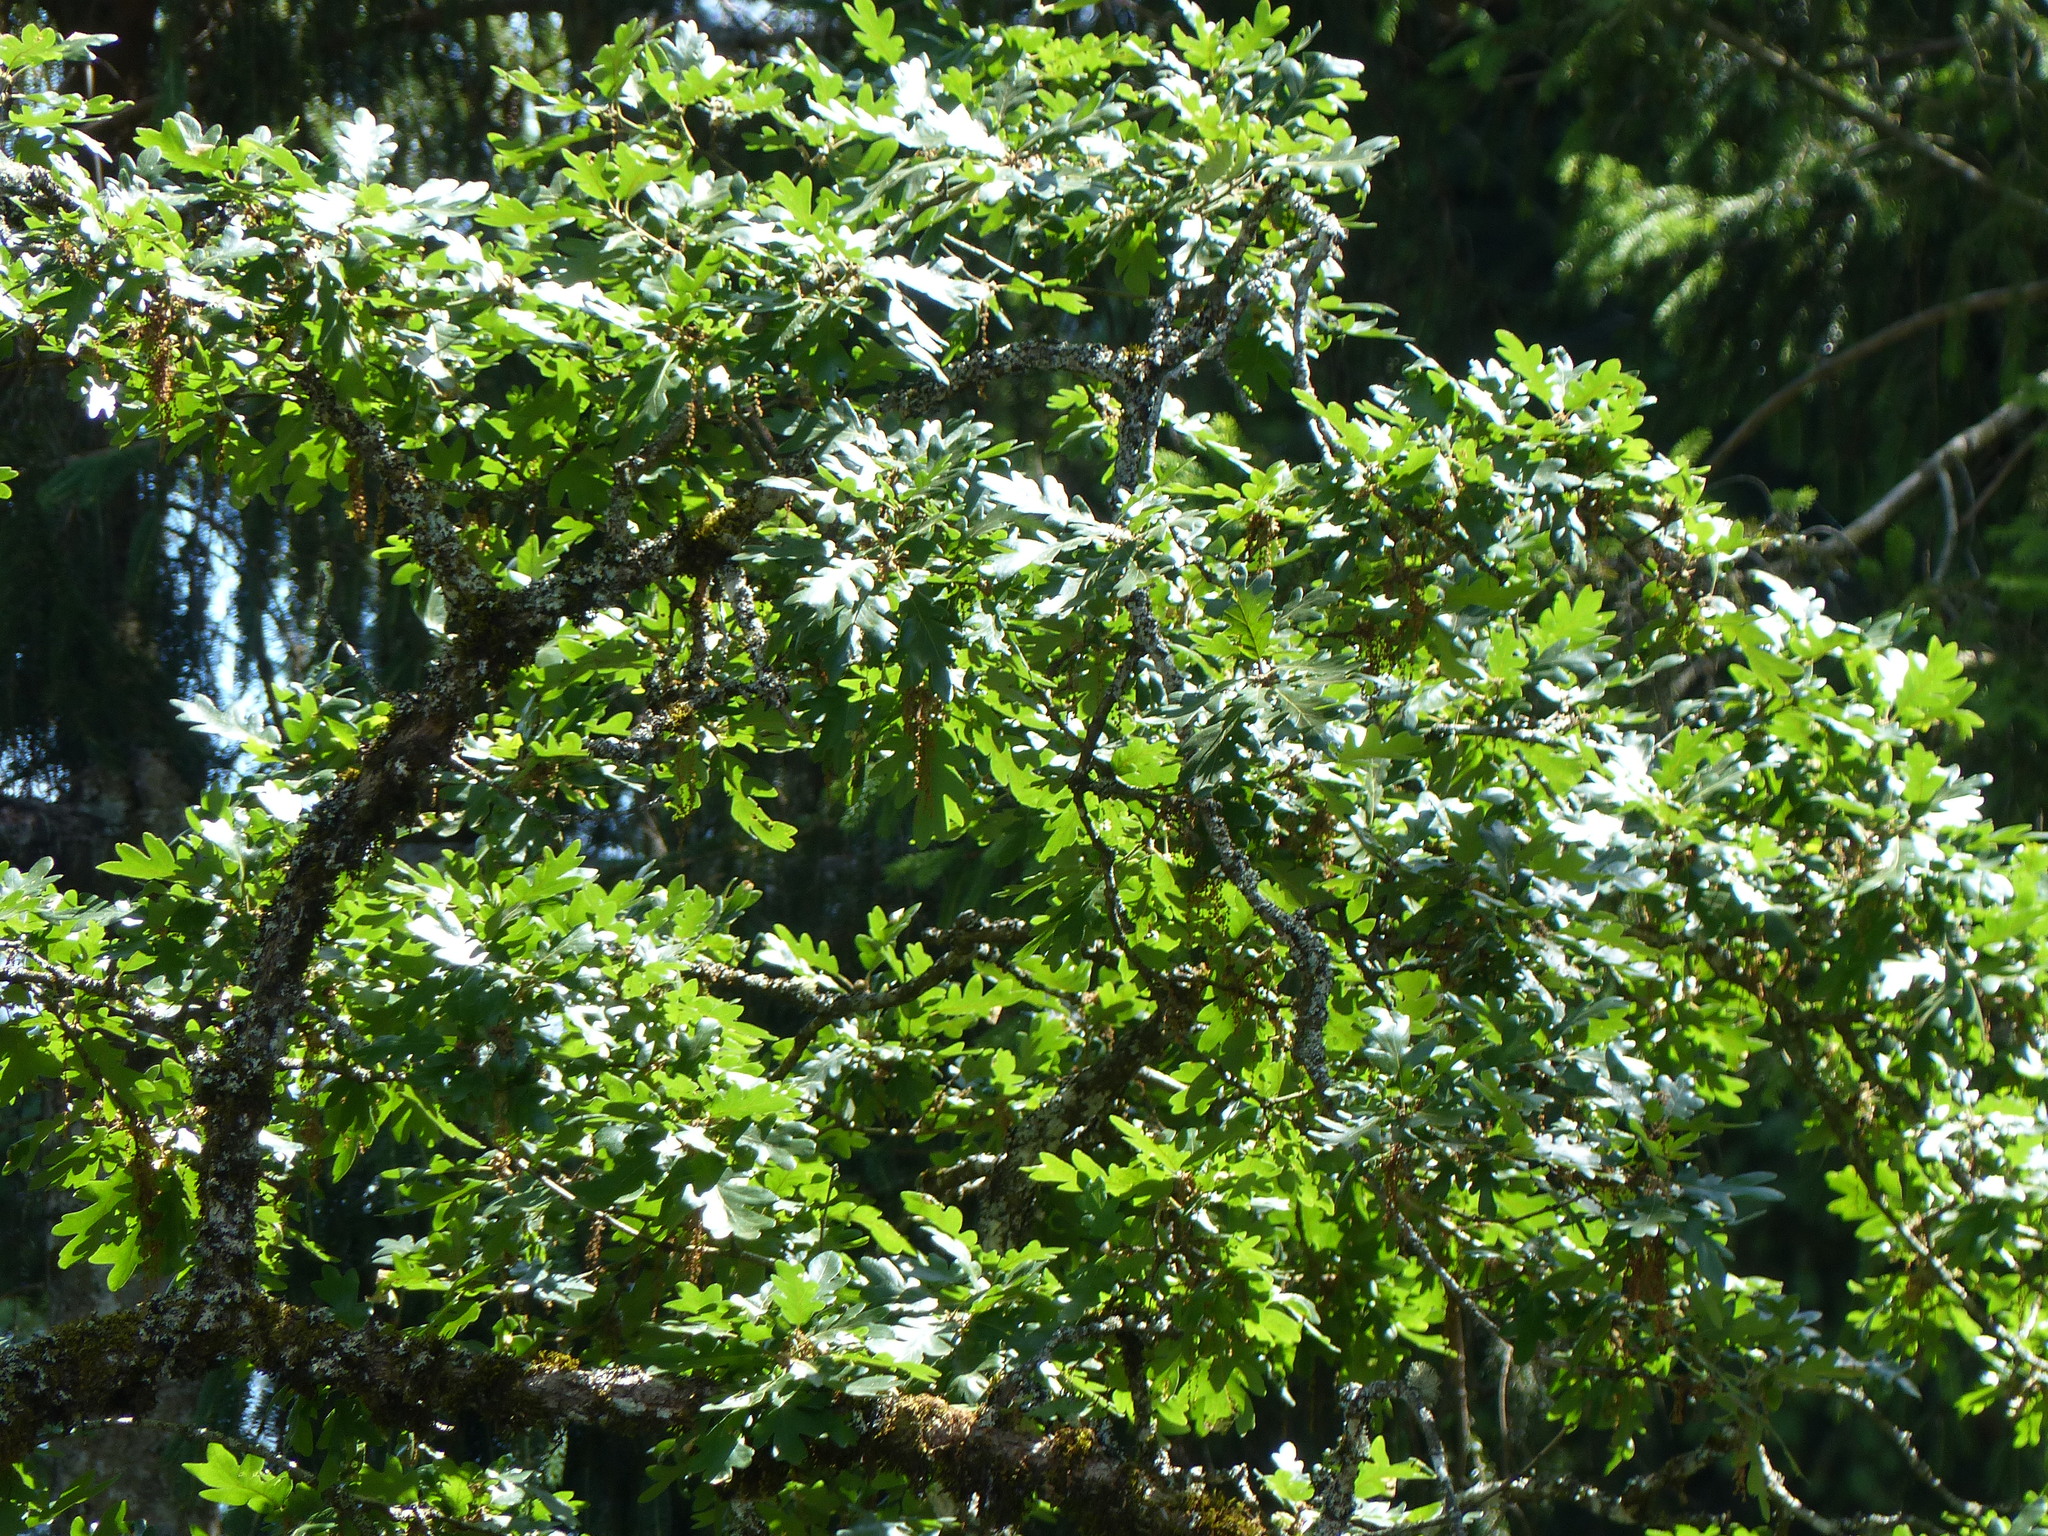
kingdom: Plantae
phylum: Tracheophyta
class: Magnoliopsida
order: Fagales
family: Fagaceae
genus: Quercus
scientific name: Quercus garryana
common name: Garry oak
